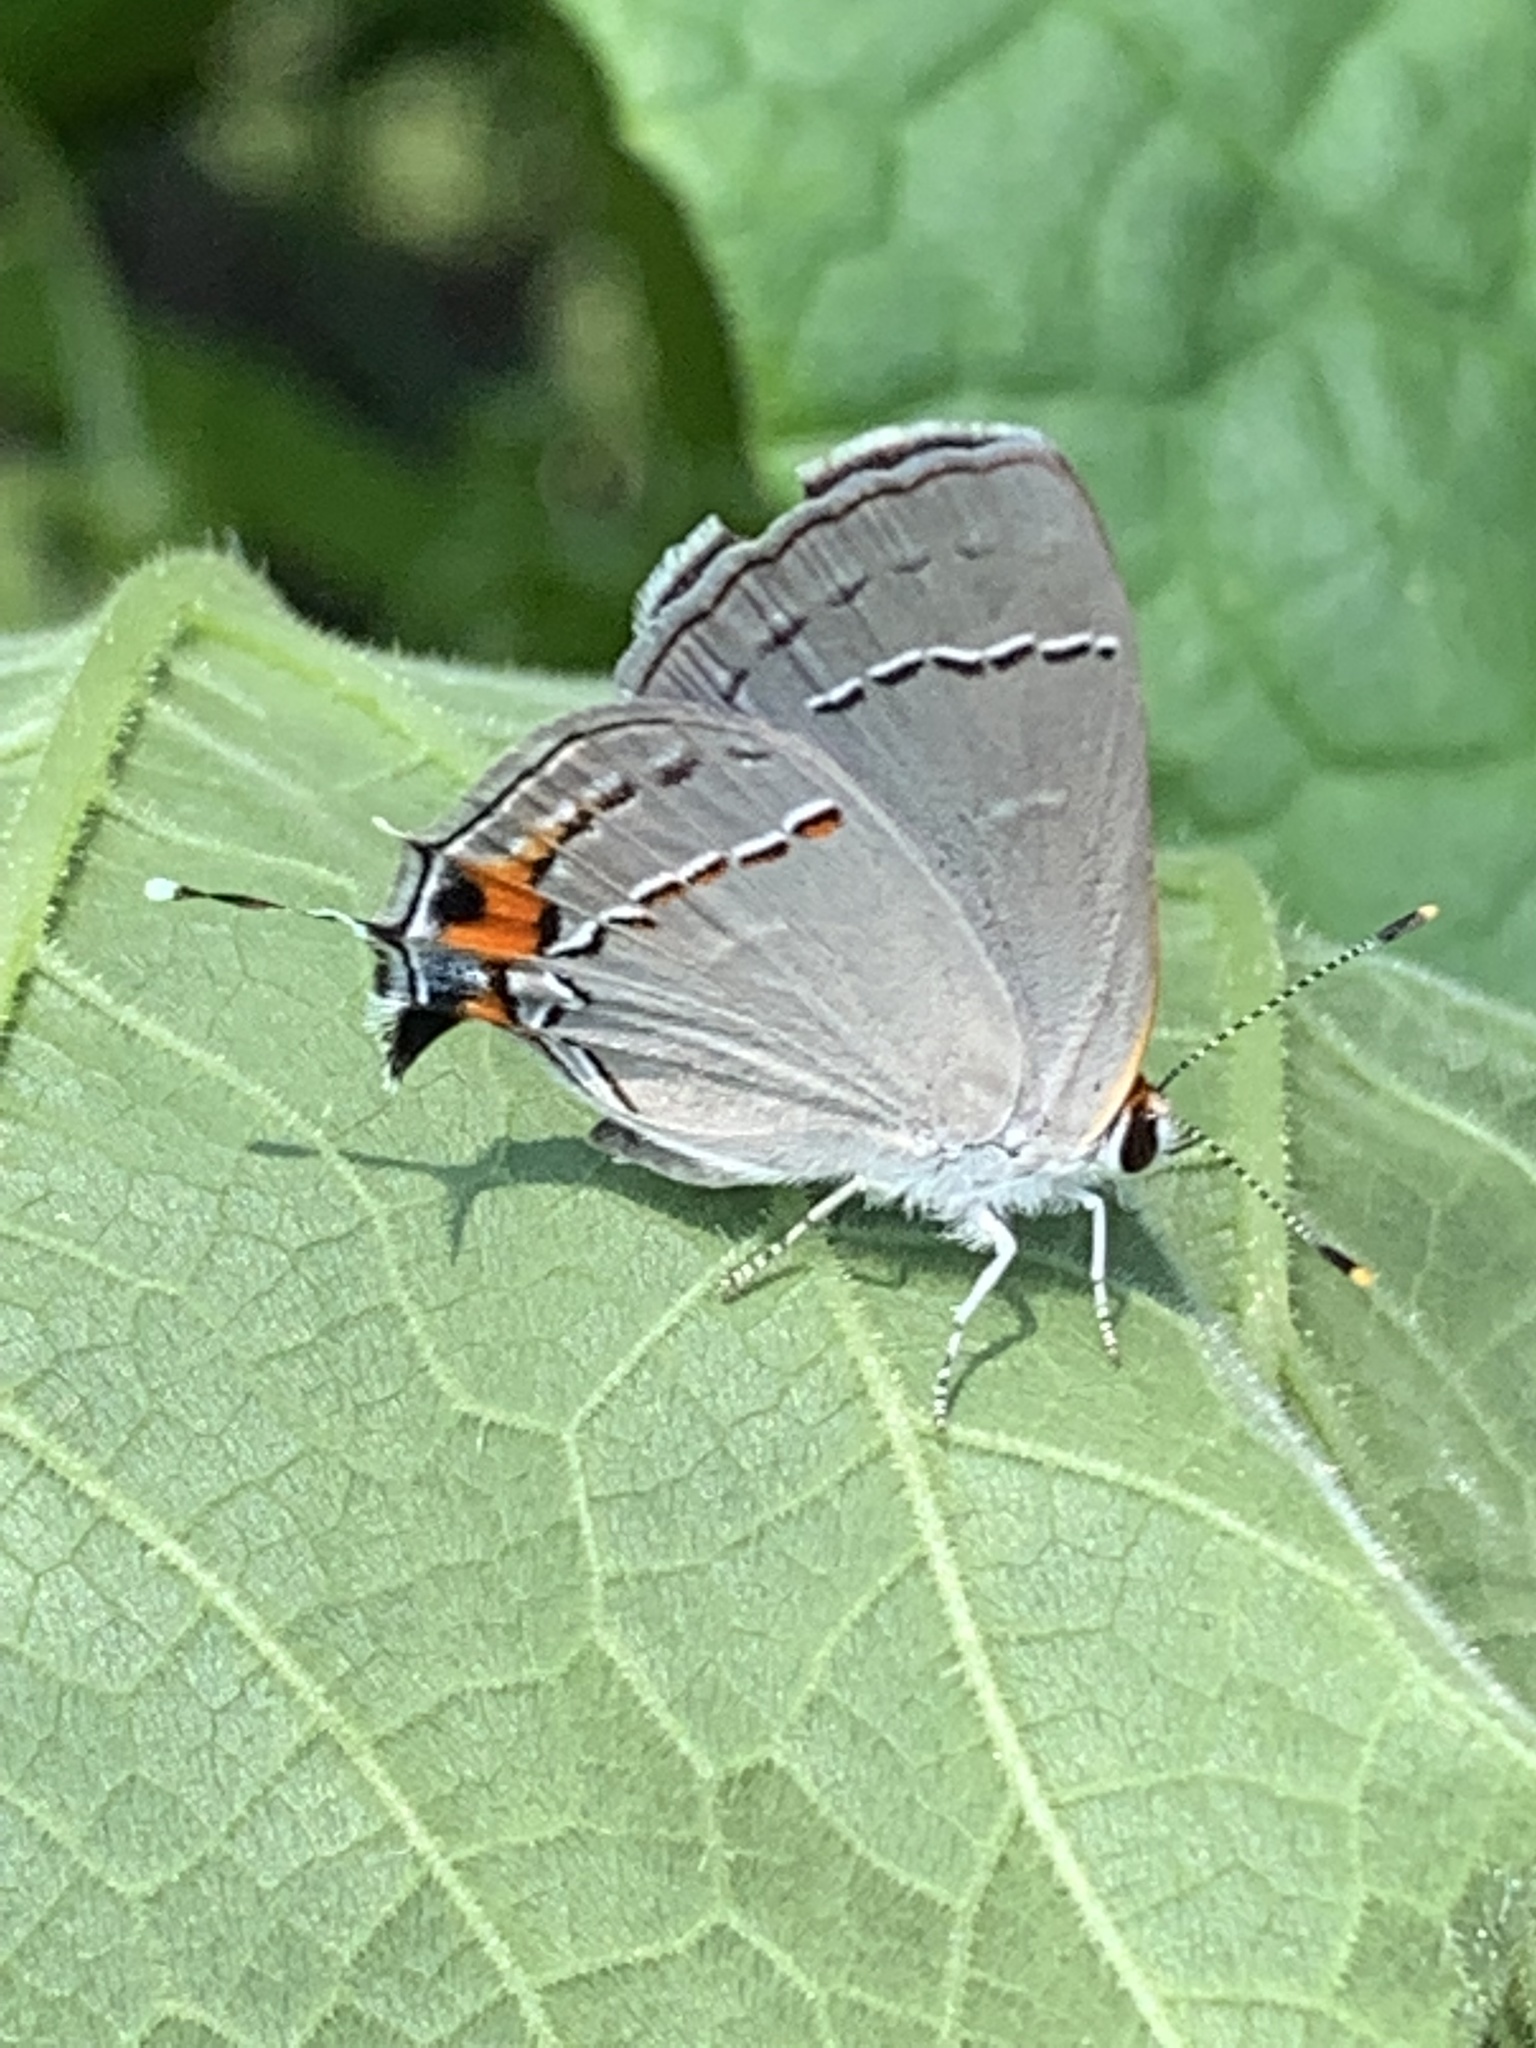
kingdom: Animalia
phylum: Arthropoda
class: Insecta
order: Lepidoptera
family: Lycaenidae
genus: Strymon
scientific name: Strymon melinus
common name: Gray hairstreak
